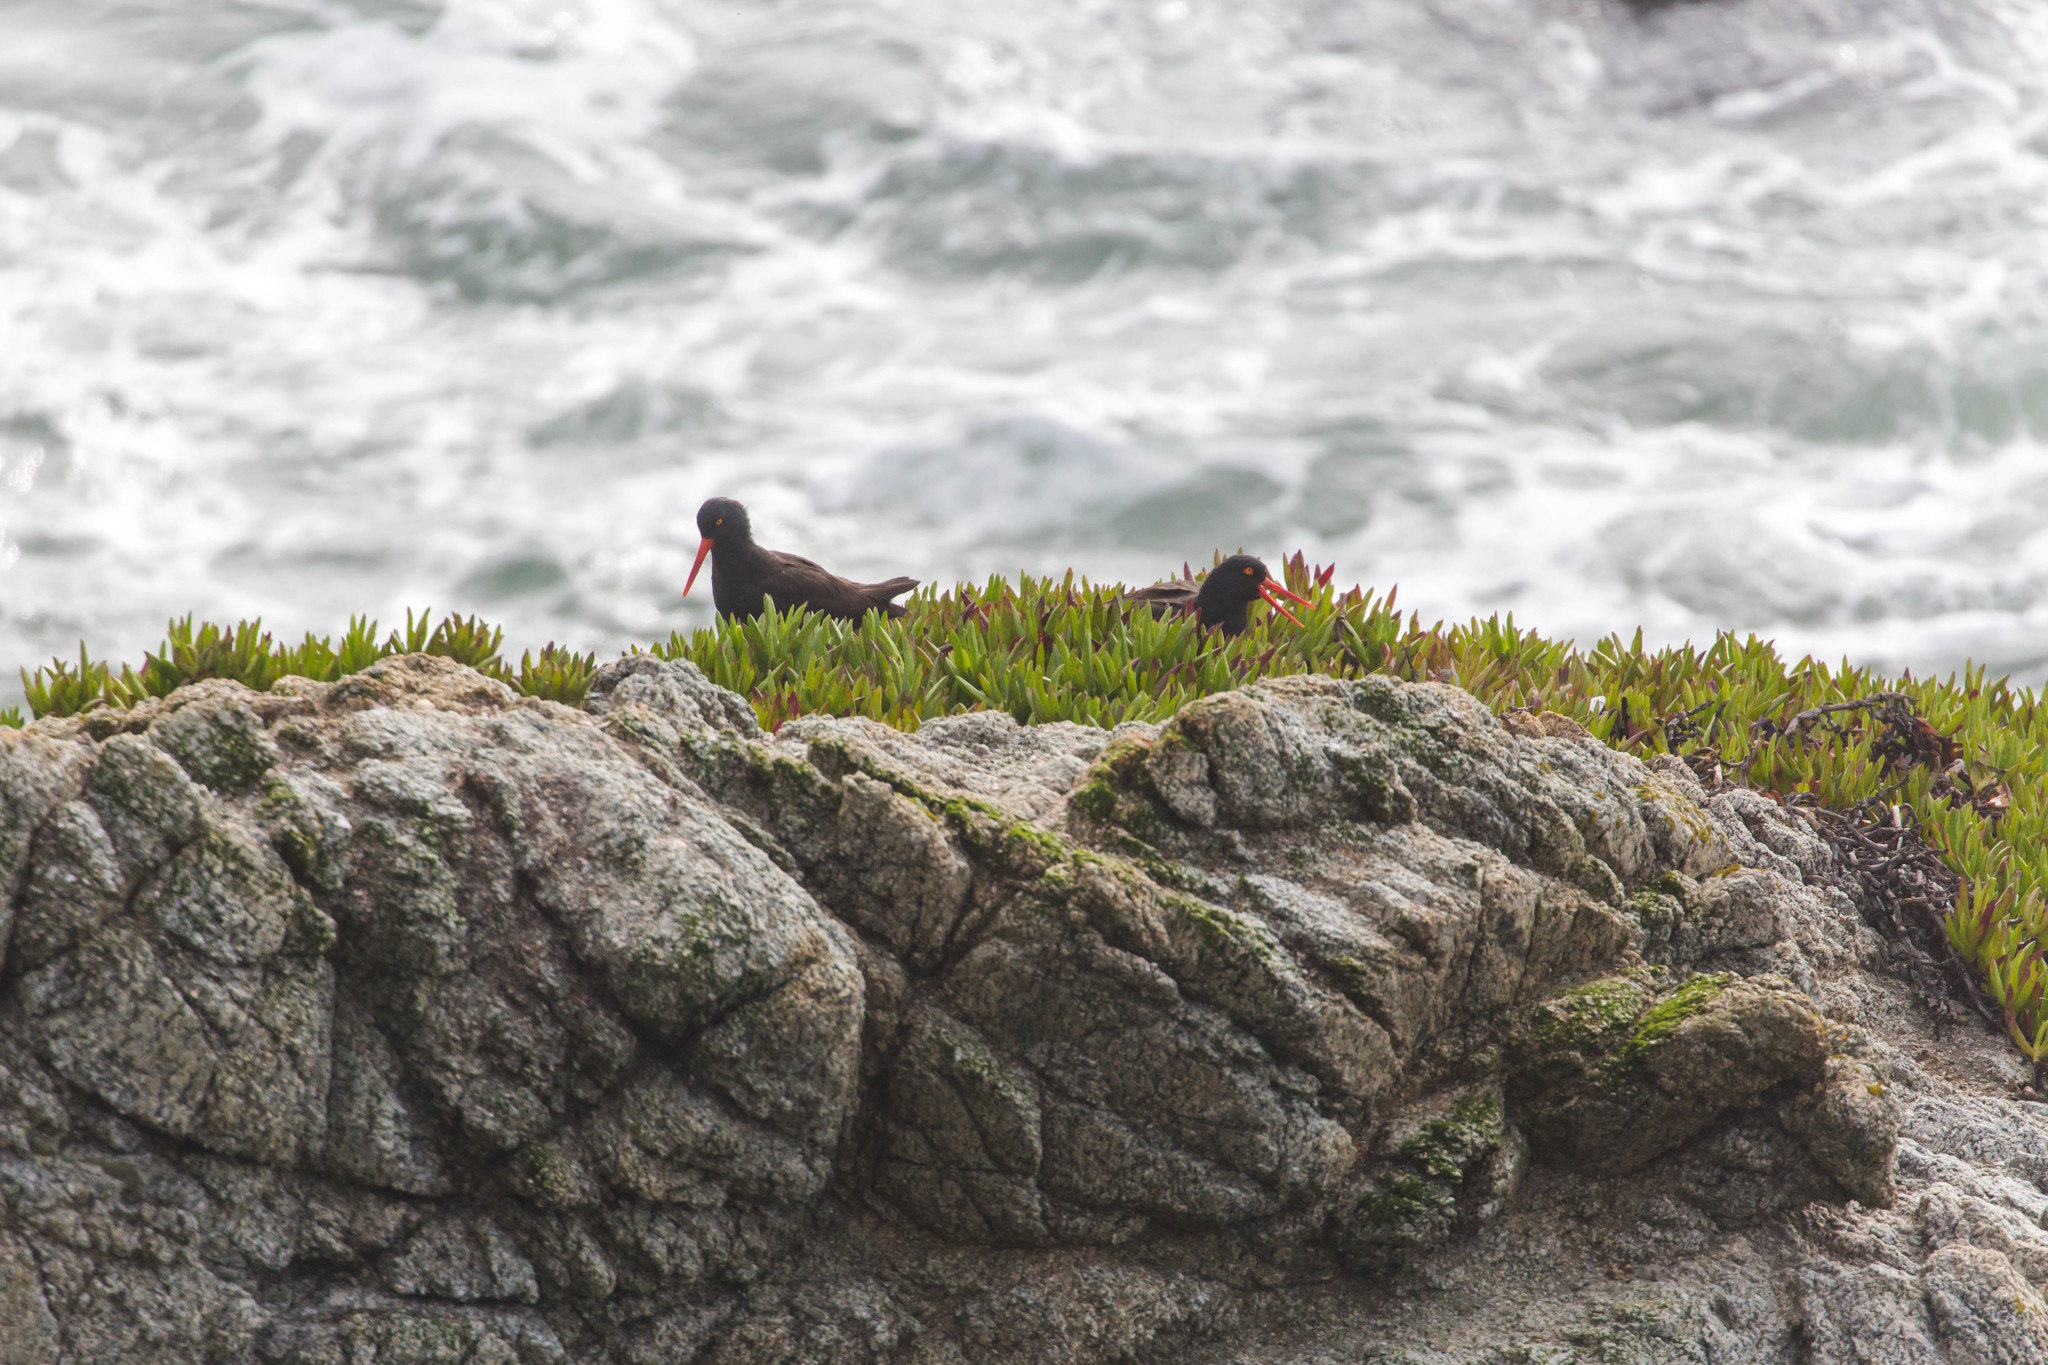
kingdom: Animalia
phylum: Chordata
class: Aves
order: Charadriiformes
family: Haematopodidae
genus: Haematopus
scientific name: Haematopus bachmani
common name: Black oystercatcher
